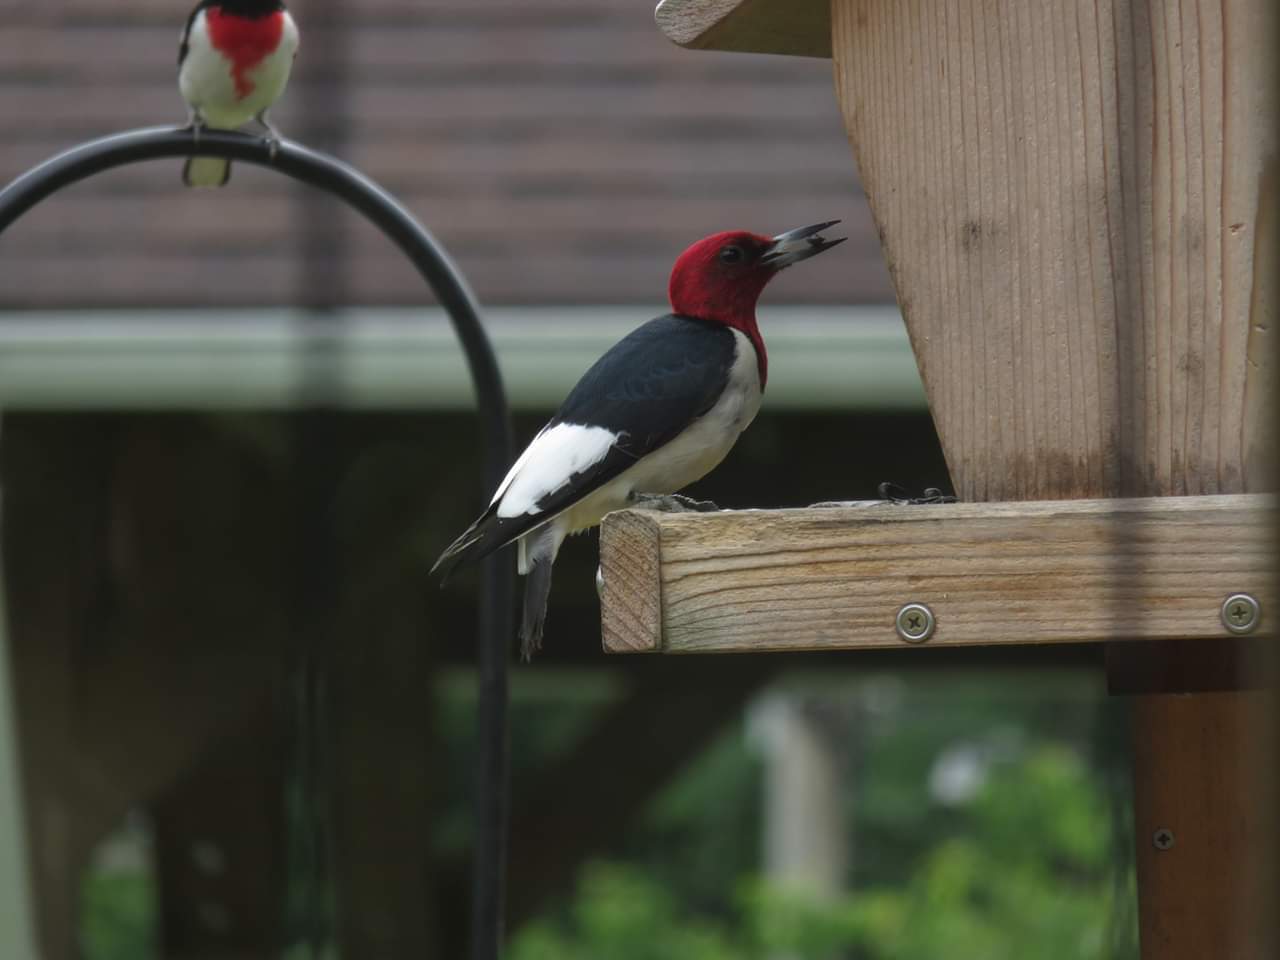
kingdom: Animalia
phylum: Chordata
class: Aves
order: Piciformes
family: Picidae
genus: Melanerpes
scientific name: Melanerpes erythrocephalus
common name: Red-headed woodpecker
